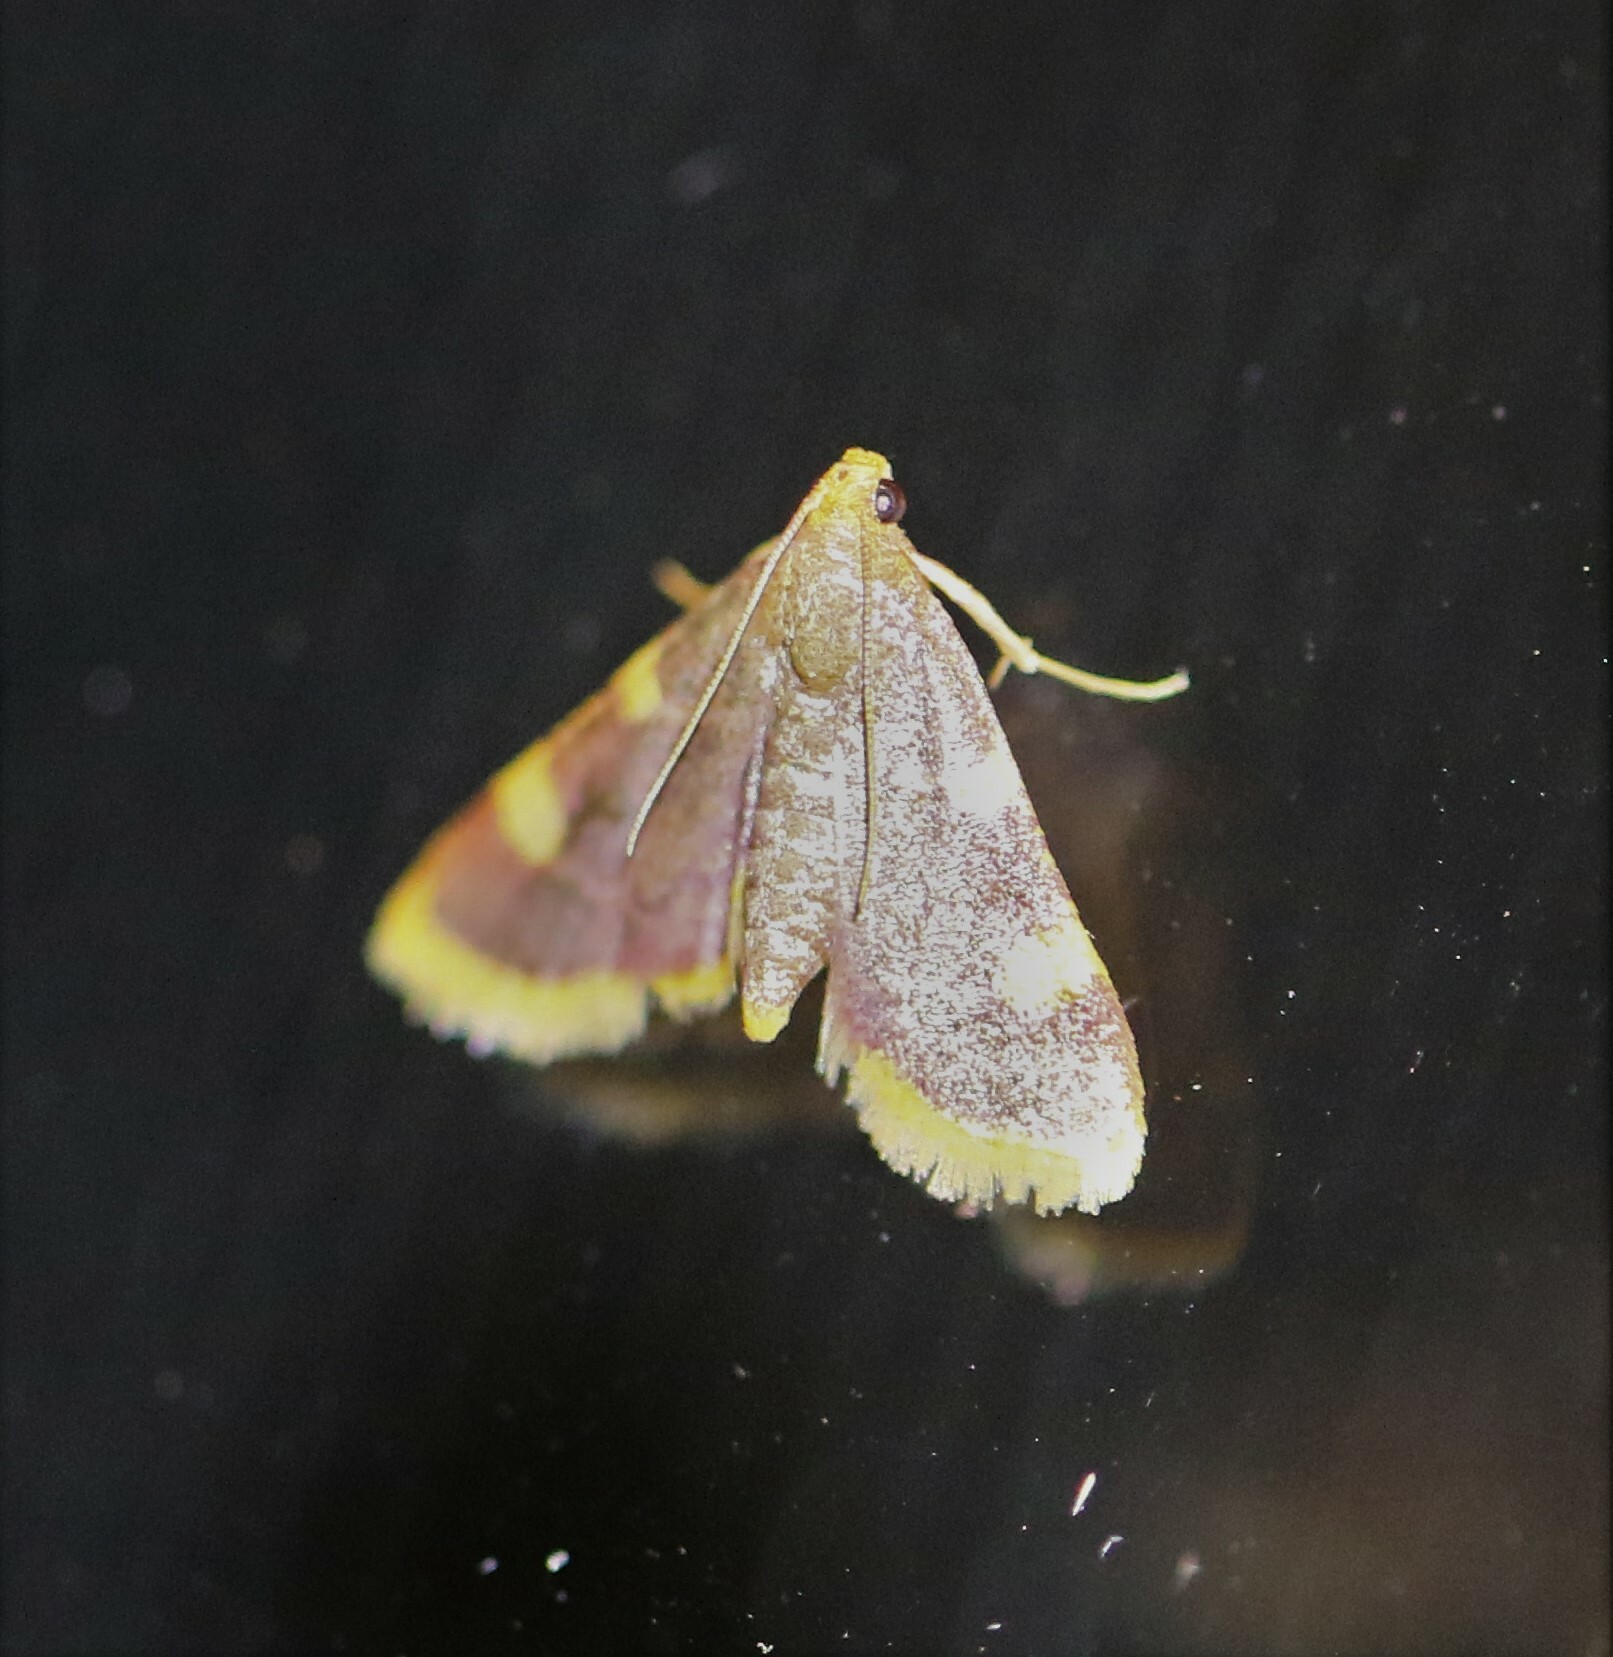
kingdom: Animalia
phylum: Arthropoda
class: Insecta
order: Lepidoptera
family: Pyralidae
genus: Hypsopygia
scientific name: Hypsopygia costalis
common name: Gold triangle
